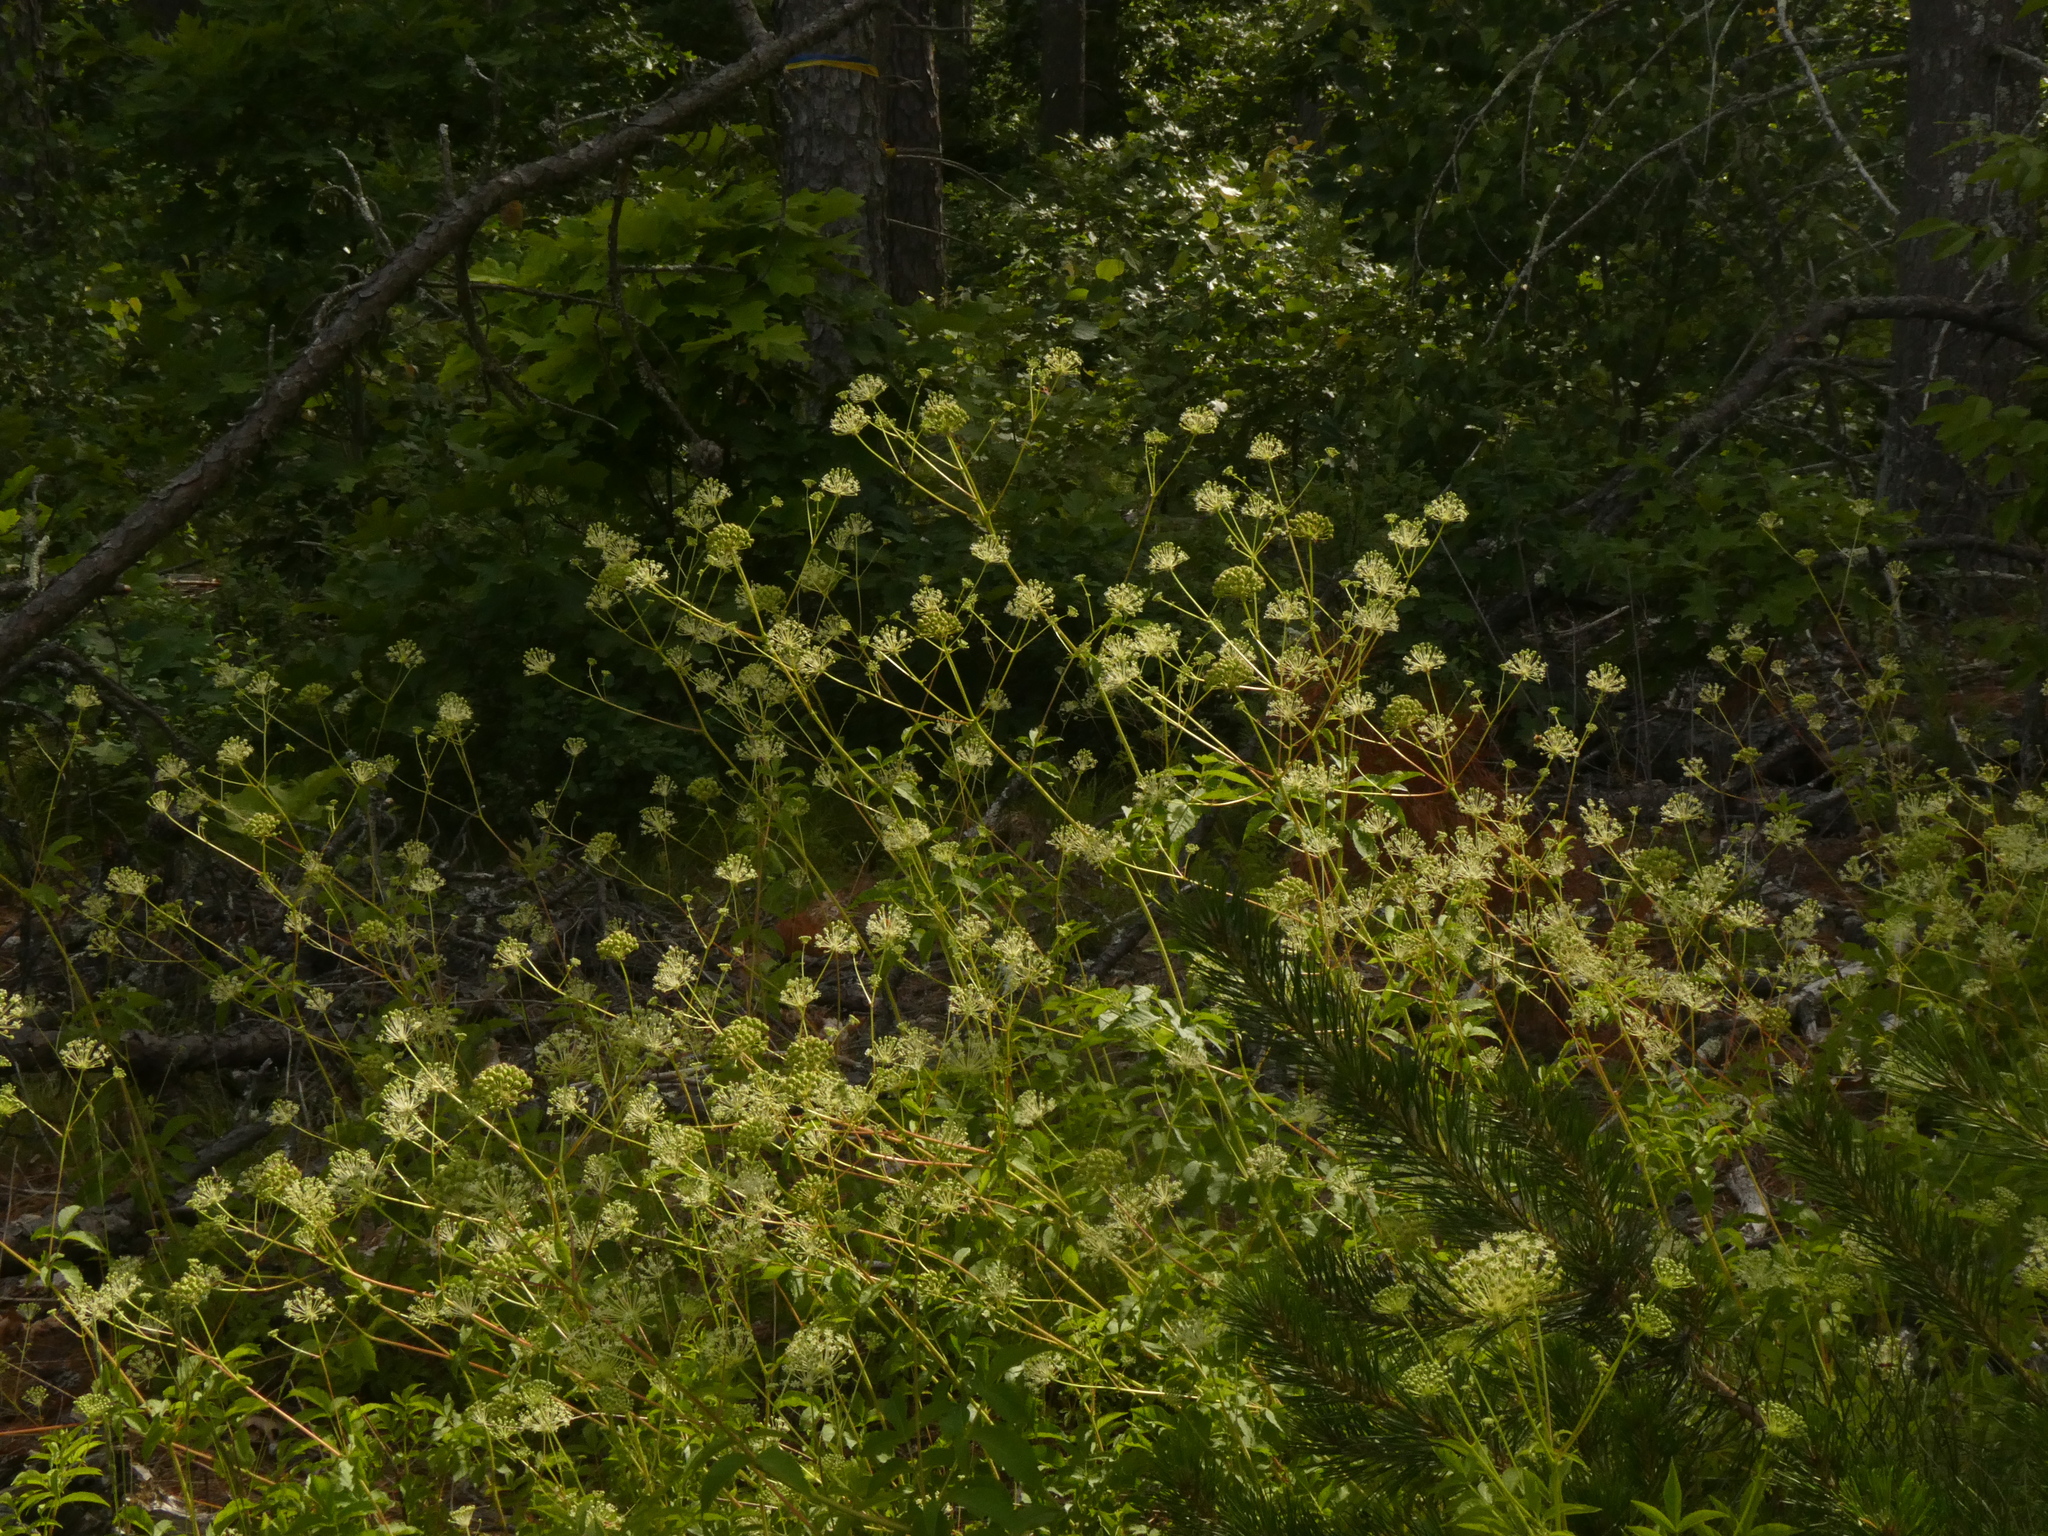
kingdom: Plantae
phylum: Tracheophyta
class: Magnoliopsida
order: Apiales
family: Araliaceae
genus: Aralia
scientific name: Aralia hispida
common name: Bristly sarsaparilla
